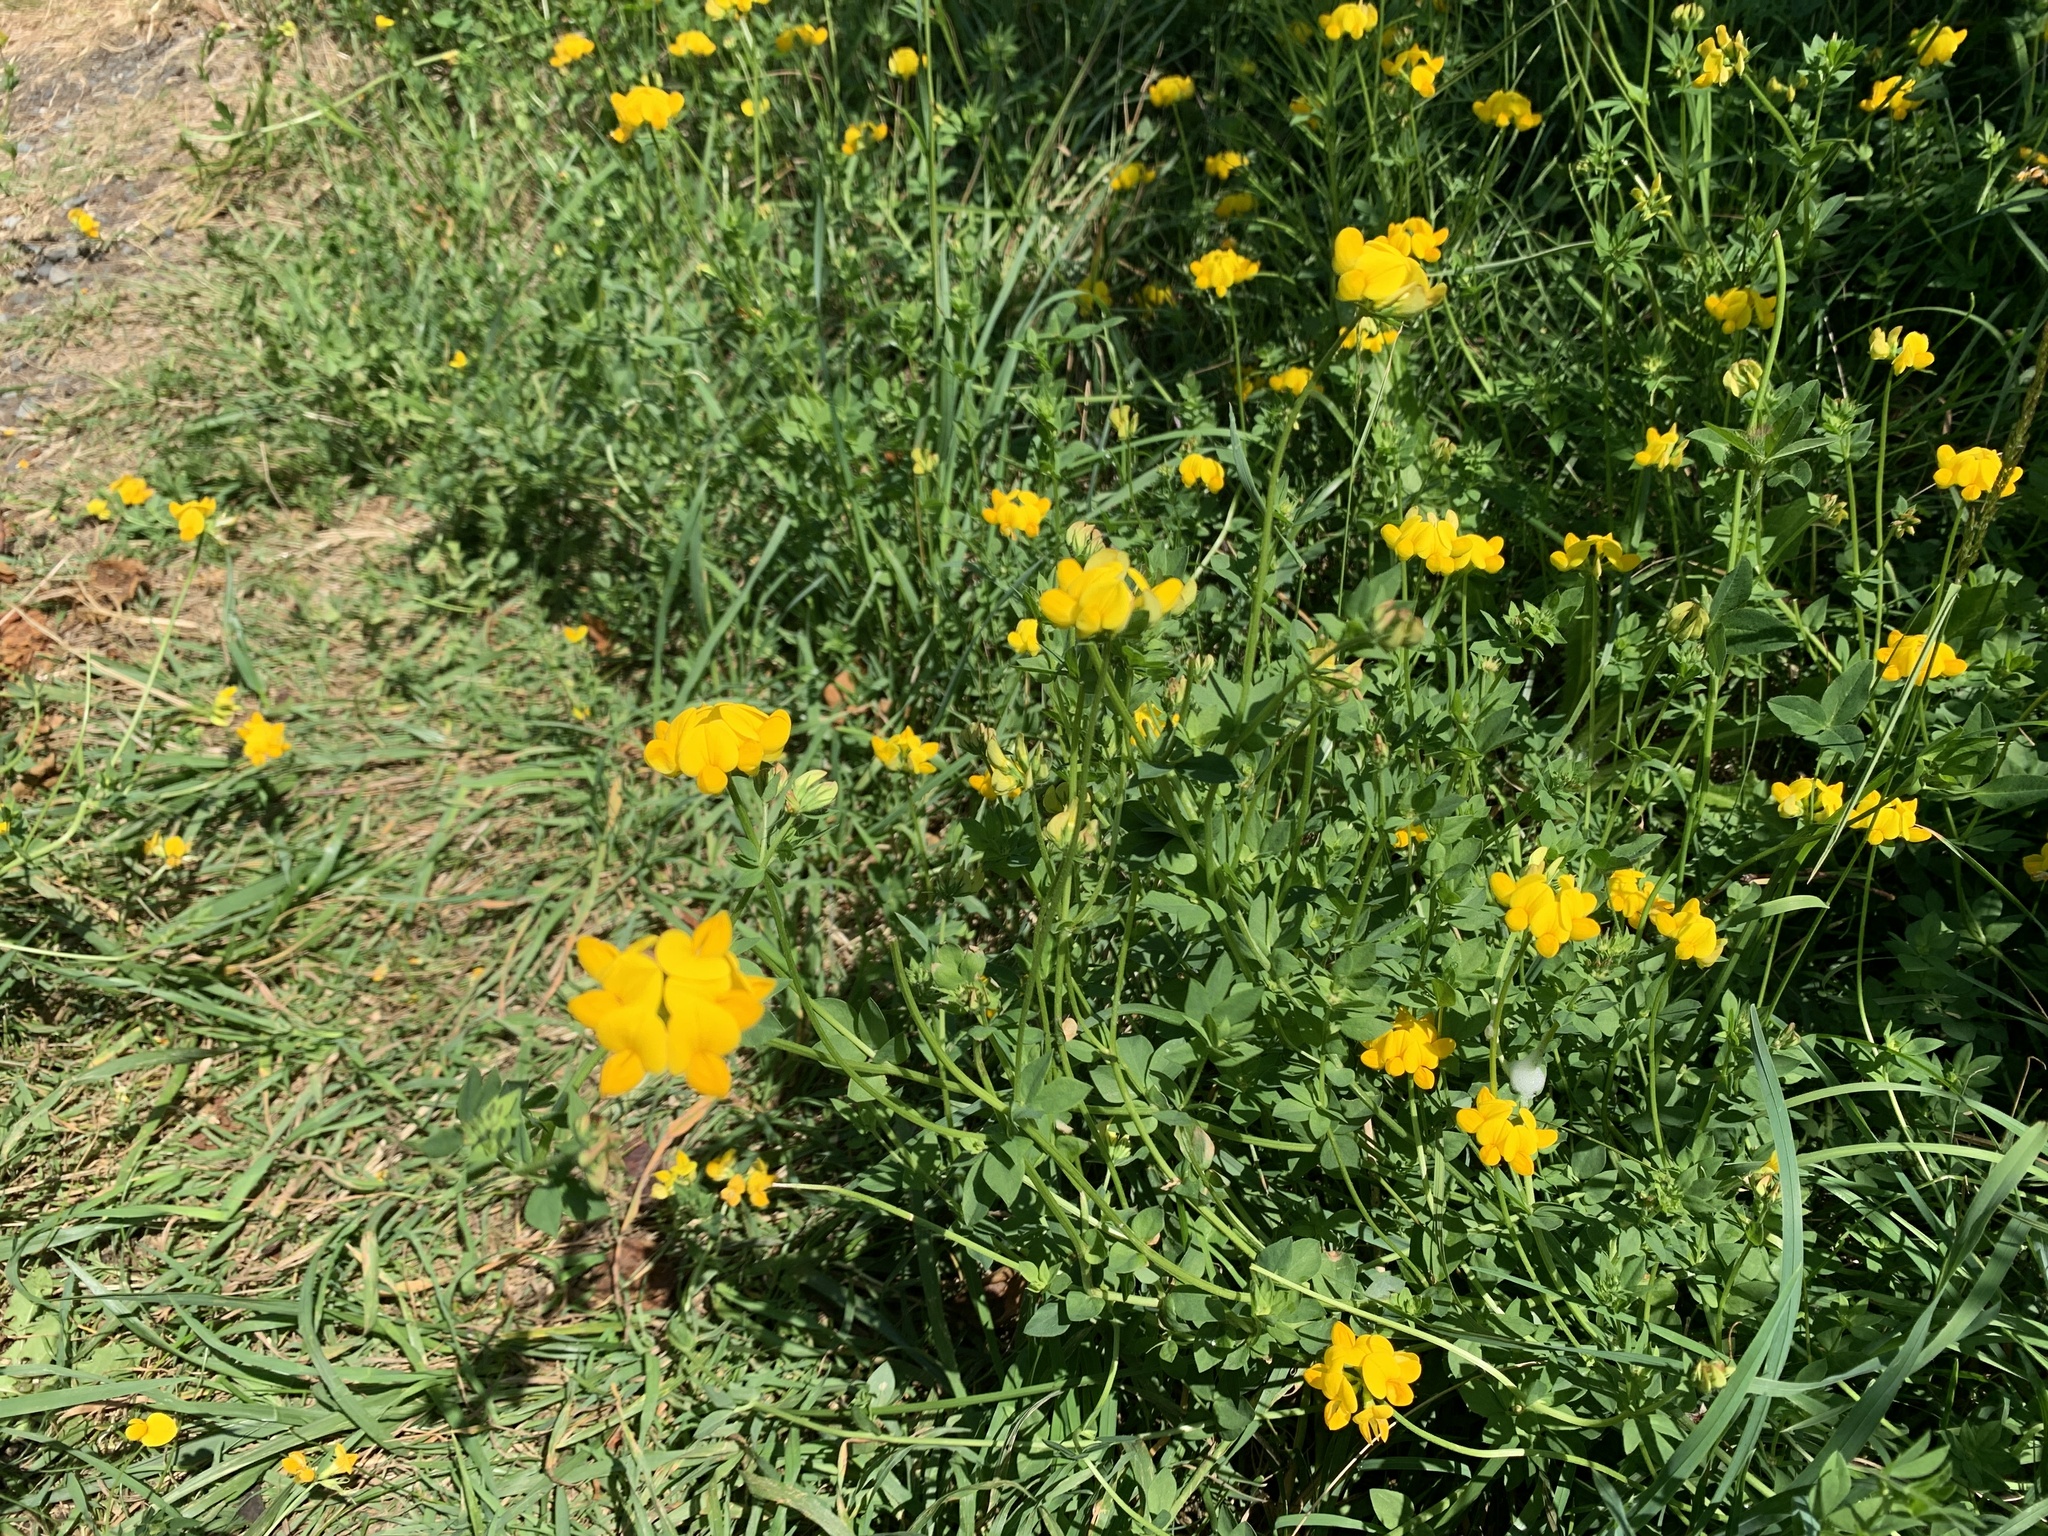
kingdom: Plantae
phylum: Tracheophyta
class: Magnoliopsida
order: Fabales
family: Fabaceae
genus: Lotus
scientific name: Lotus corniculatus
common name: Common bird's-foot-trefoil
